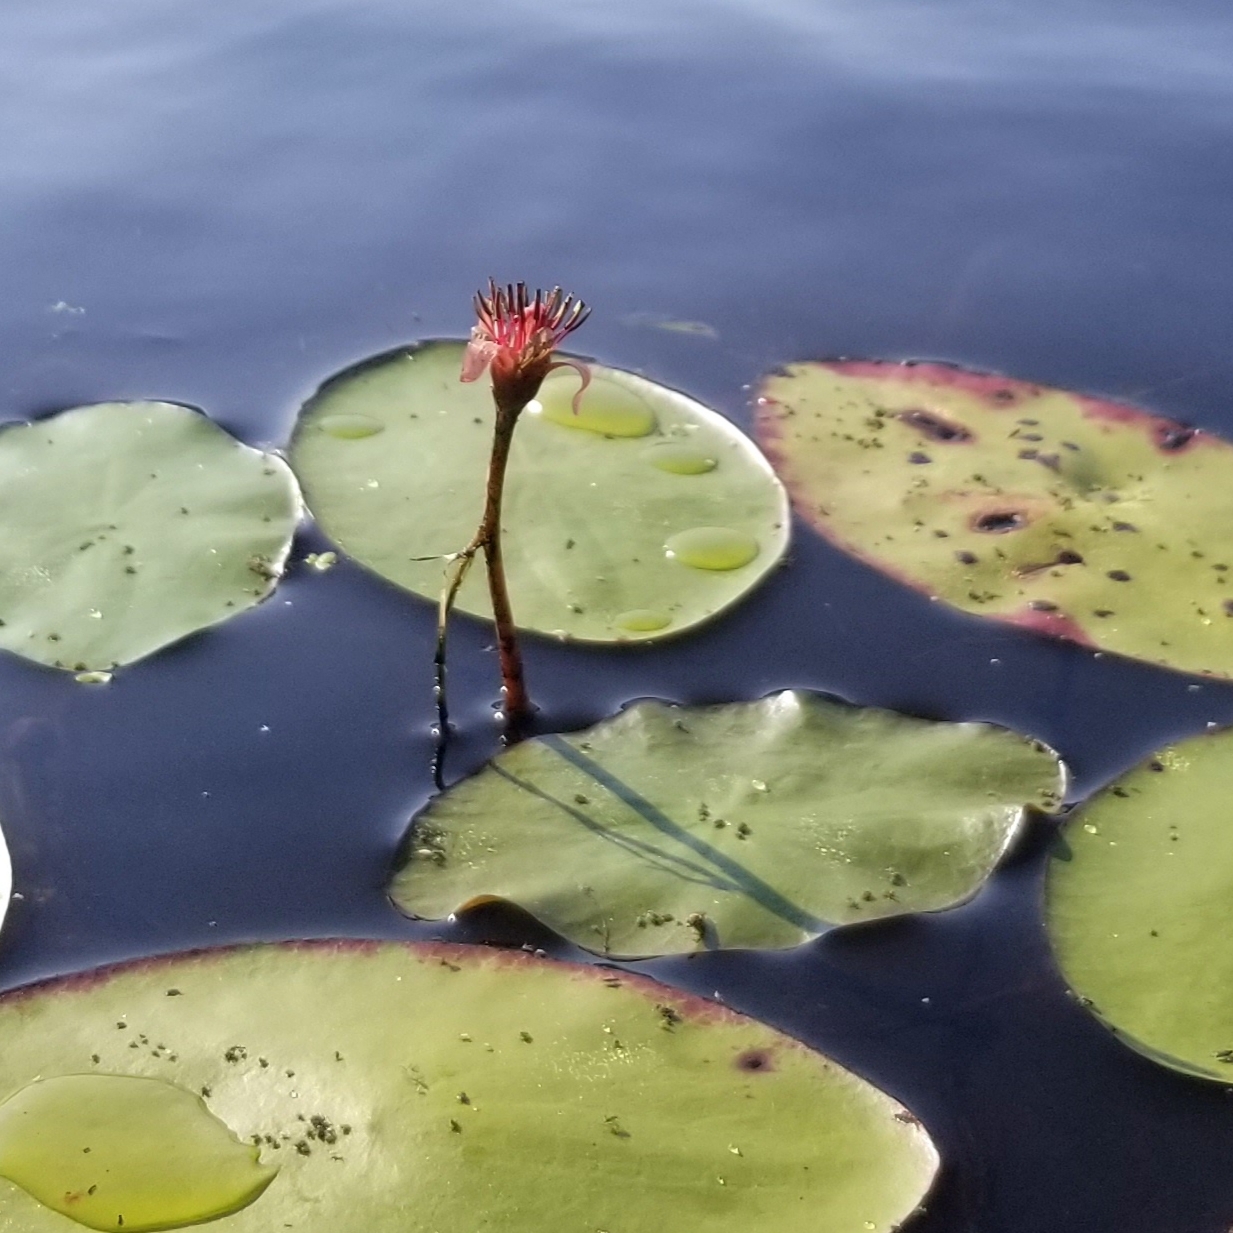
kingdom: Plantae
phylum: Tracheophyta
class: Magnoliopsida
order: Nymphaeales
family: Cabombaceae
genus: Brasenia
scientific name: Brasenia schreberi
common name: Water-shield
